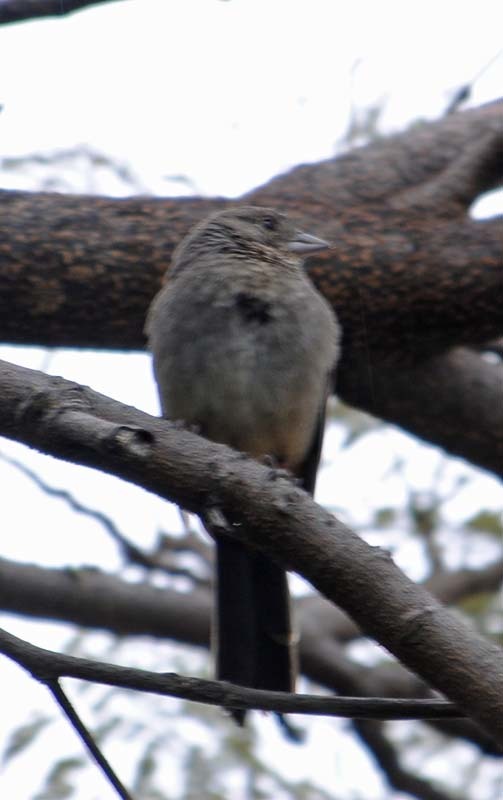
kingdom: Animalia
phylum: Chordata
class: Aves
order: Passeriformes
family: Passerellidae
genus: Melozone
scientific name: Melozone fusca
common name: Canyon towhee
